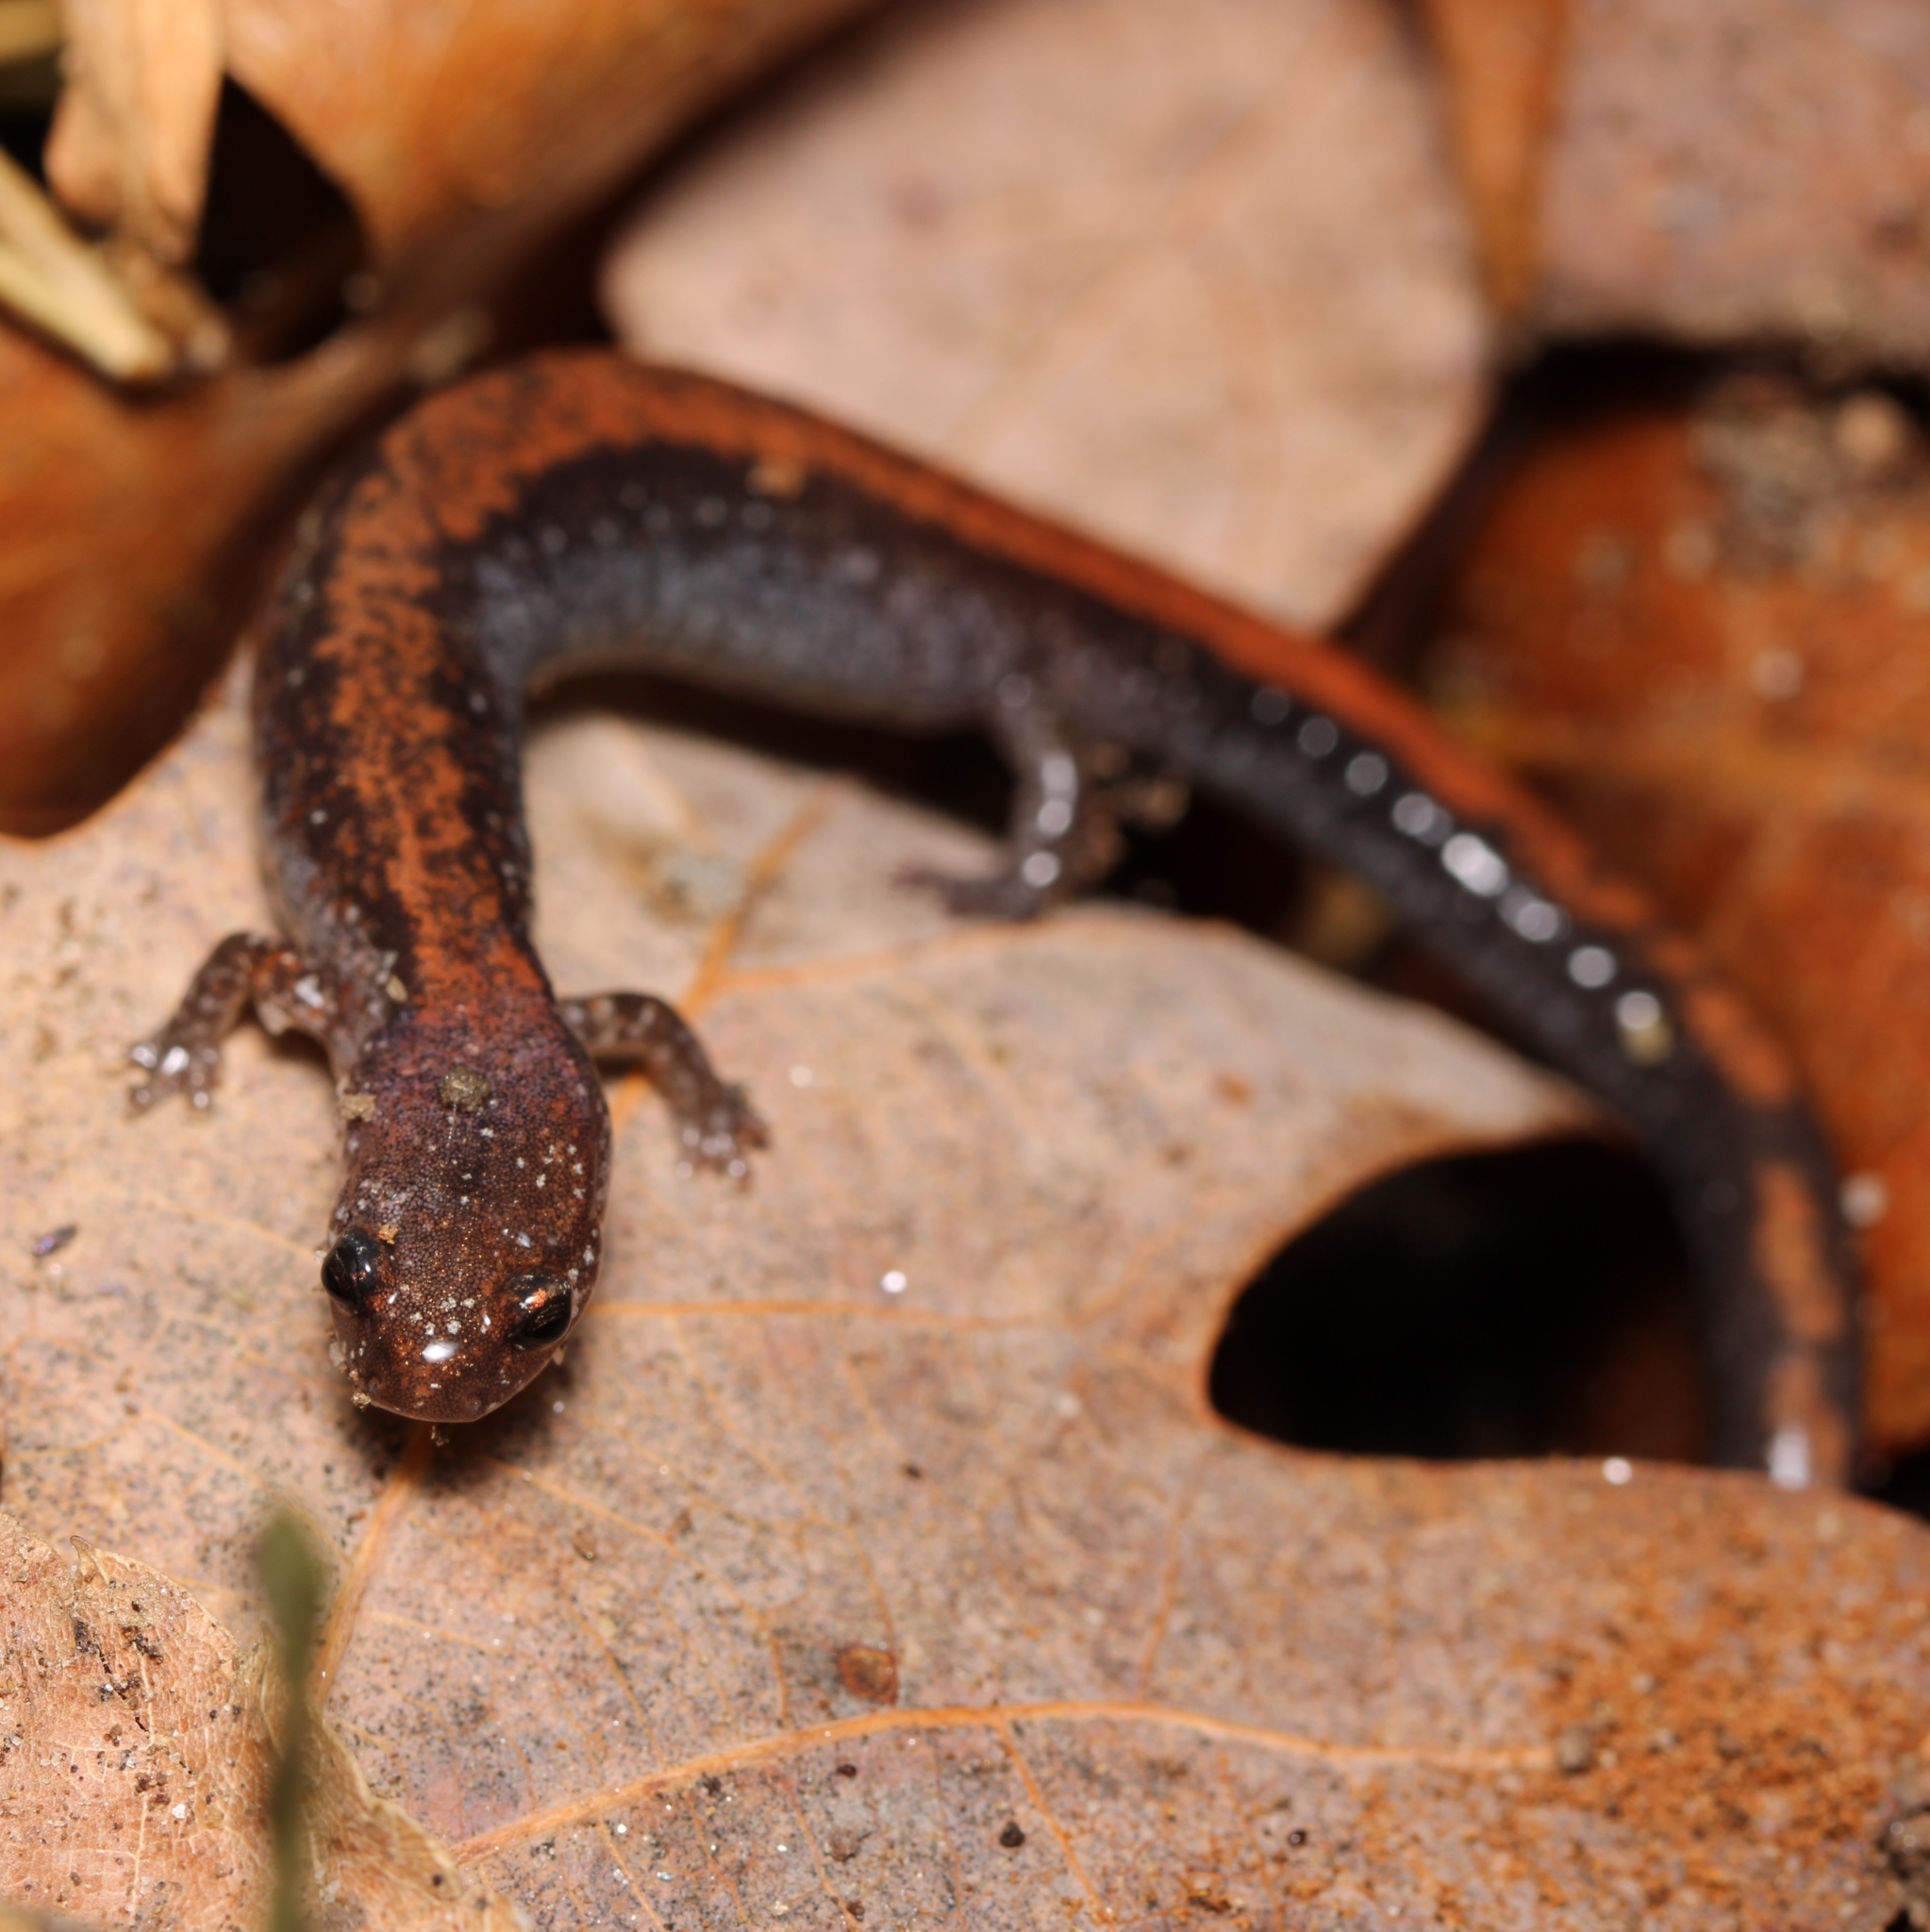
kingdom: Animalia
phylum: Chordata
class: Amphibia
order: Caudata
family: Plethodontidae
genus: Plethodon
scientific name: Plethodon cinereus
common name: Redback salamander
